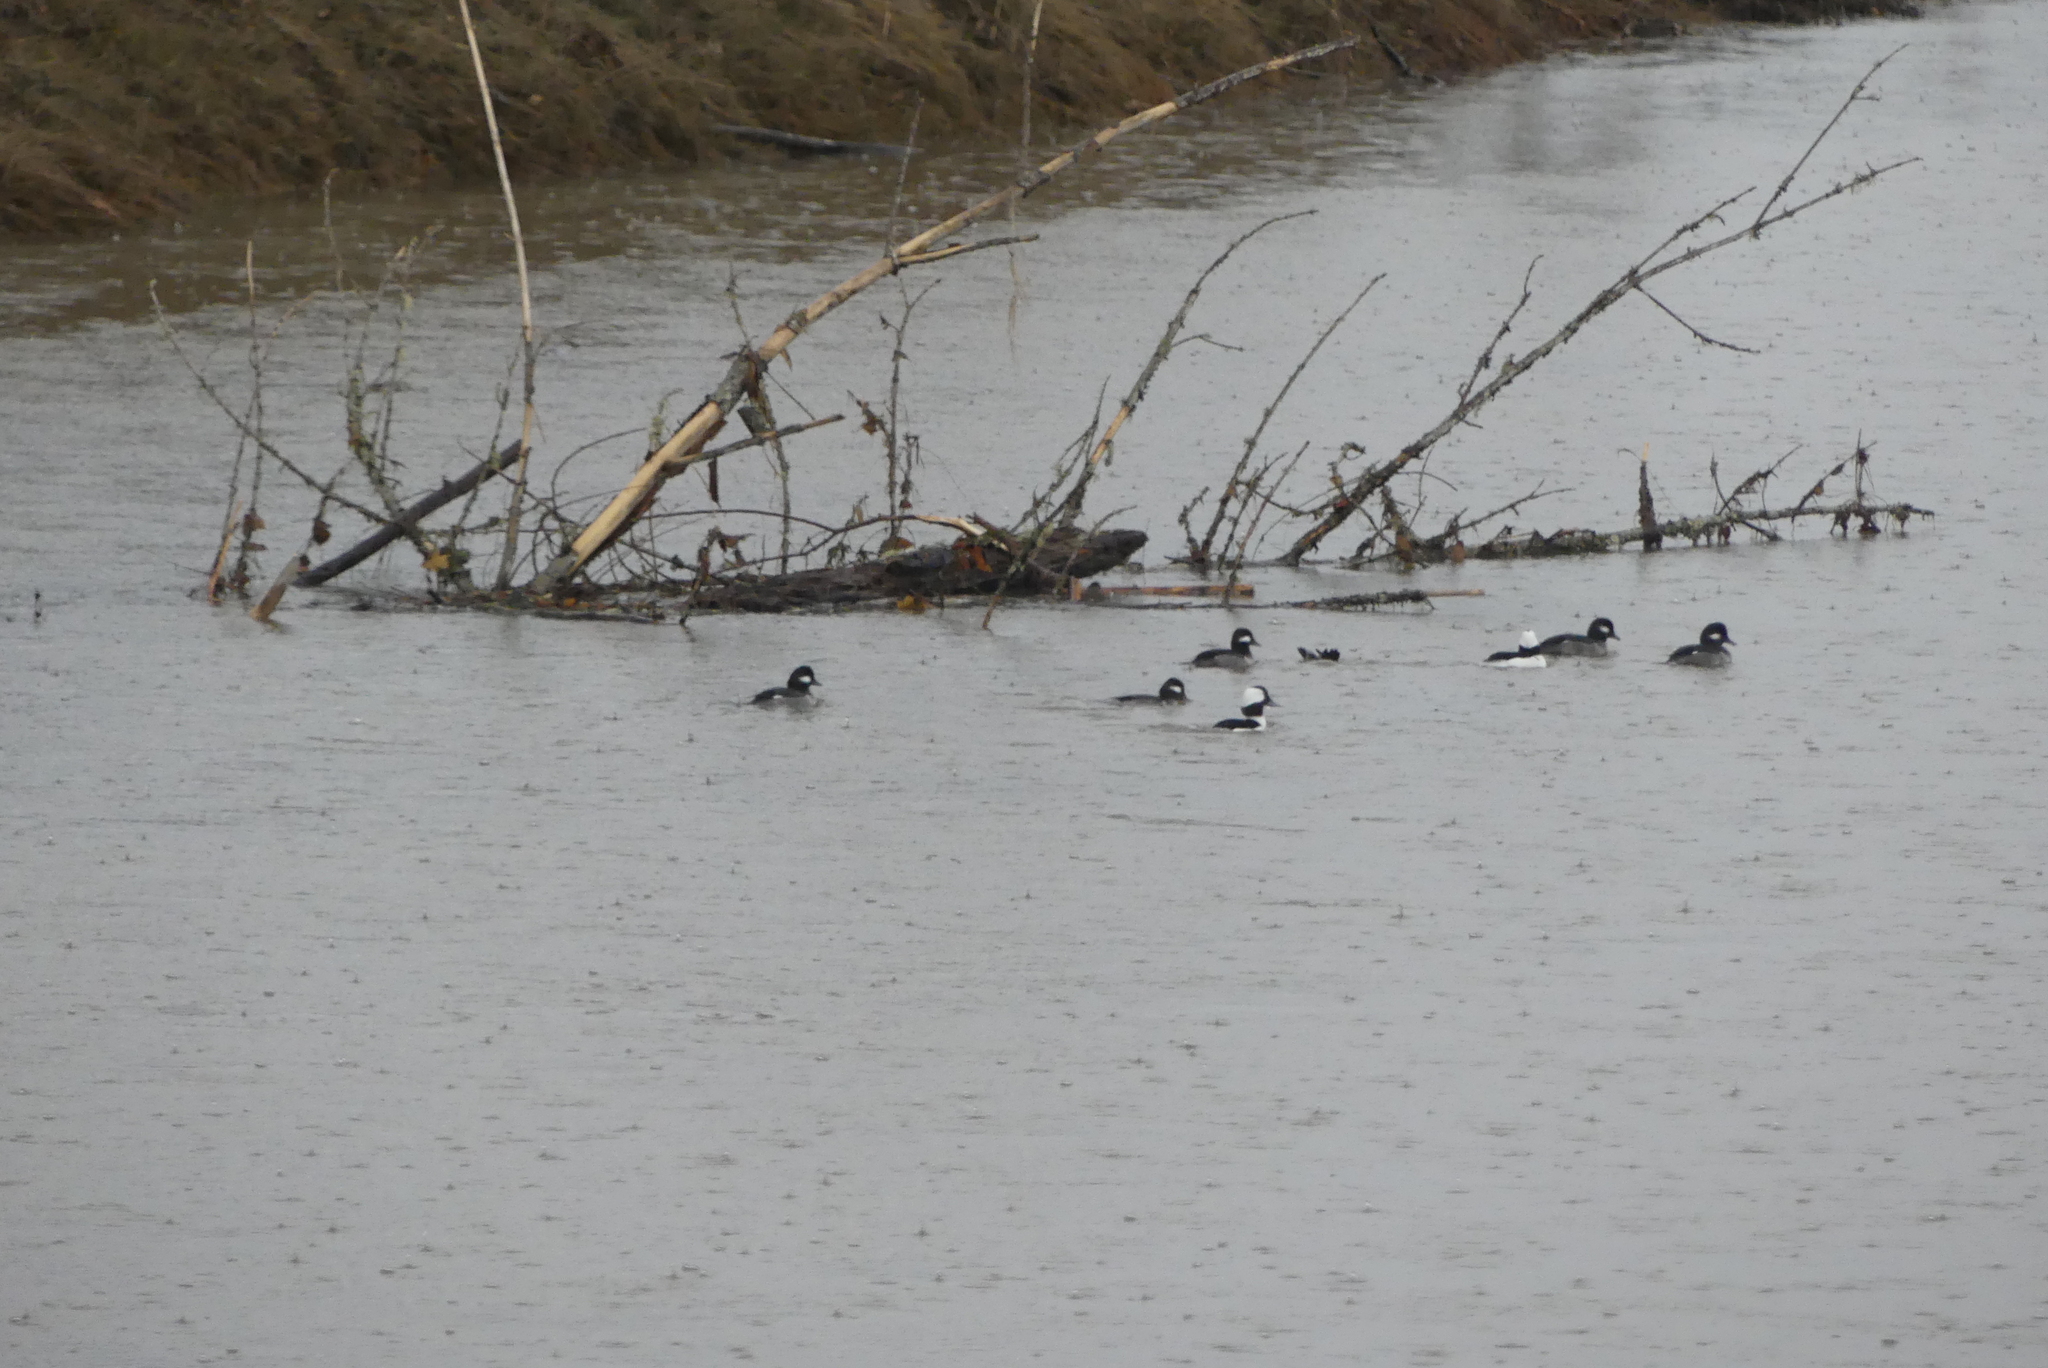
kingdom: Animalia
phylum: Chordata
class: Aves
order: Anseriformes
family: Anatidae
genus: Bucephala
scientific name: Bucephala albeola
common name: Bufflehead
